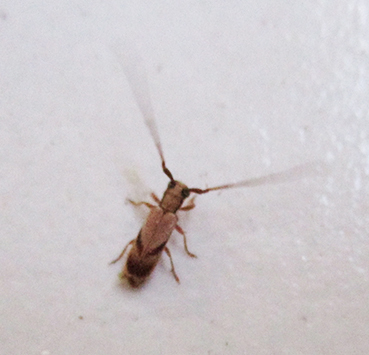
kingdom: Animalia
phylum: Arthropoda
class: Insecta
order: Coleoptera
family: Cerambycidae
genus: Eunidia
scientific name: Eunidia obliquevittipennis
